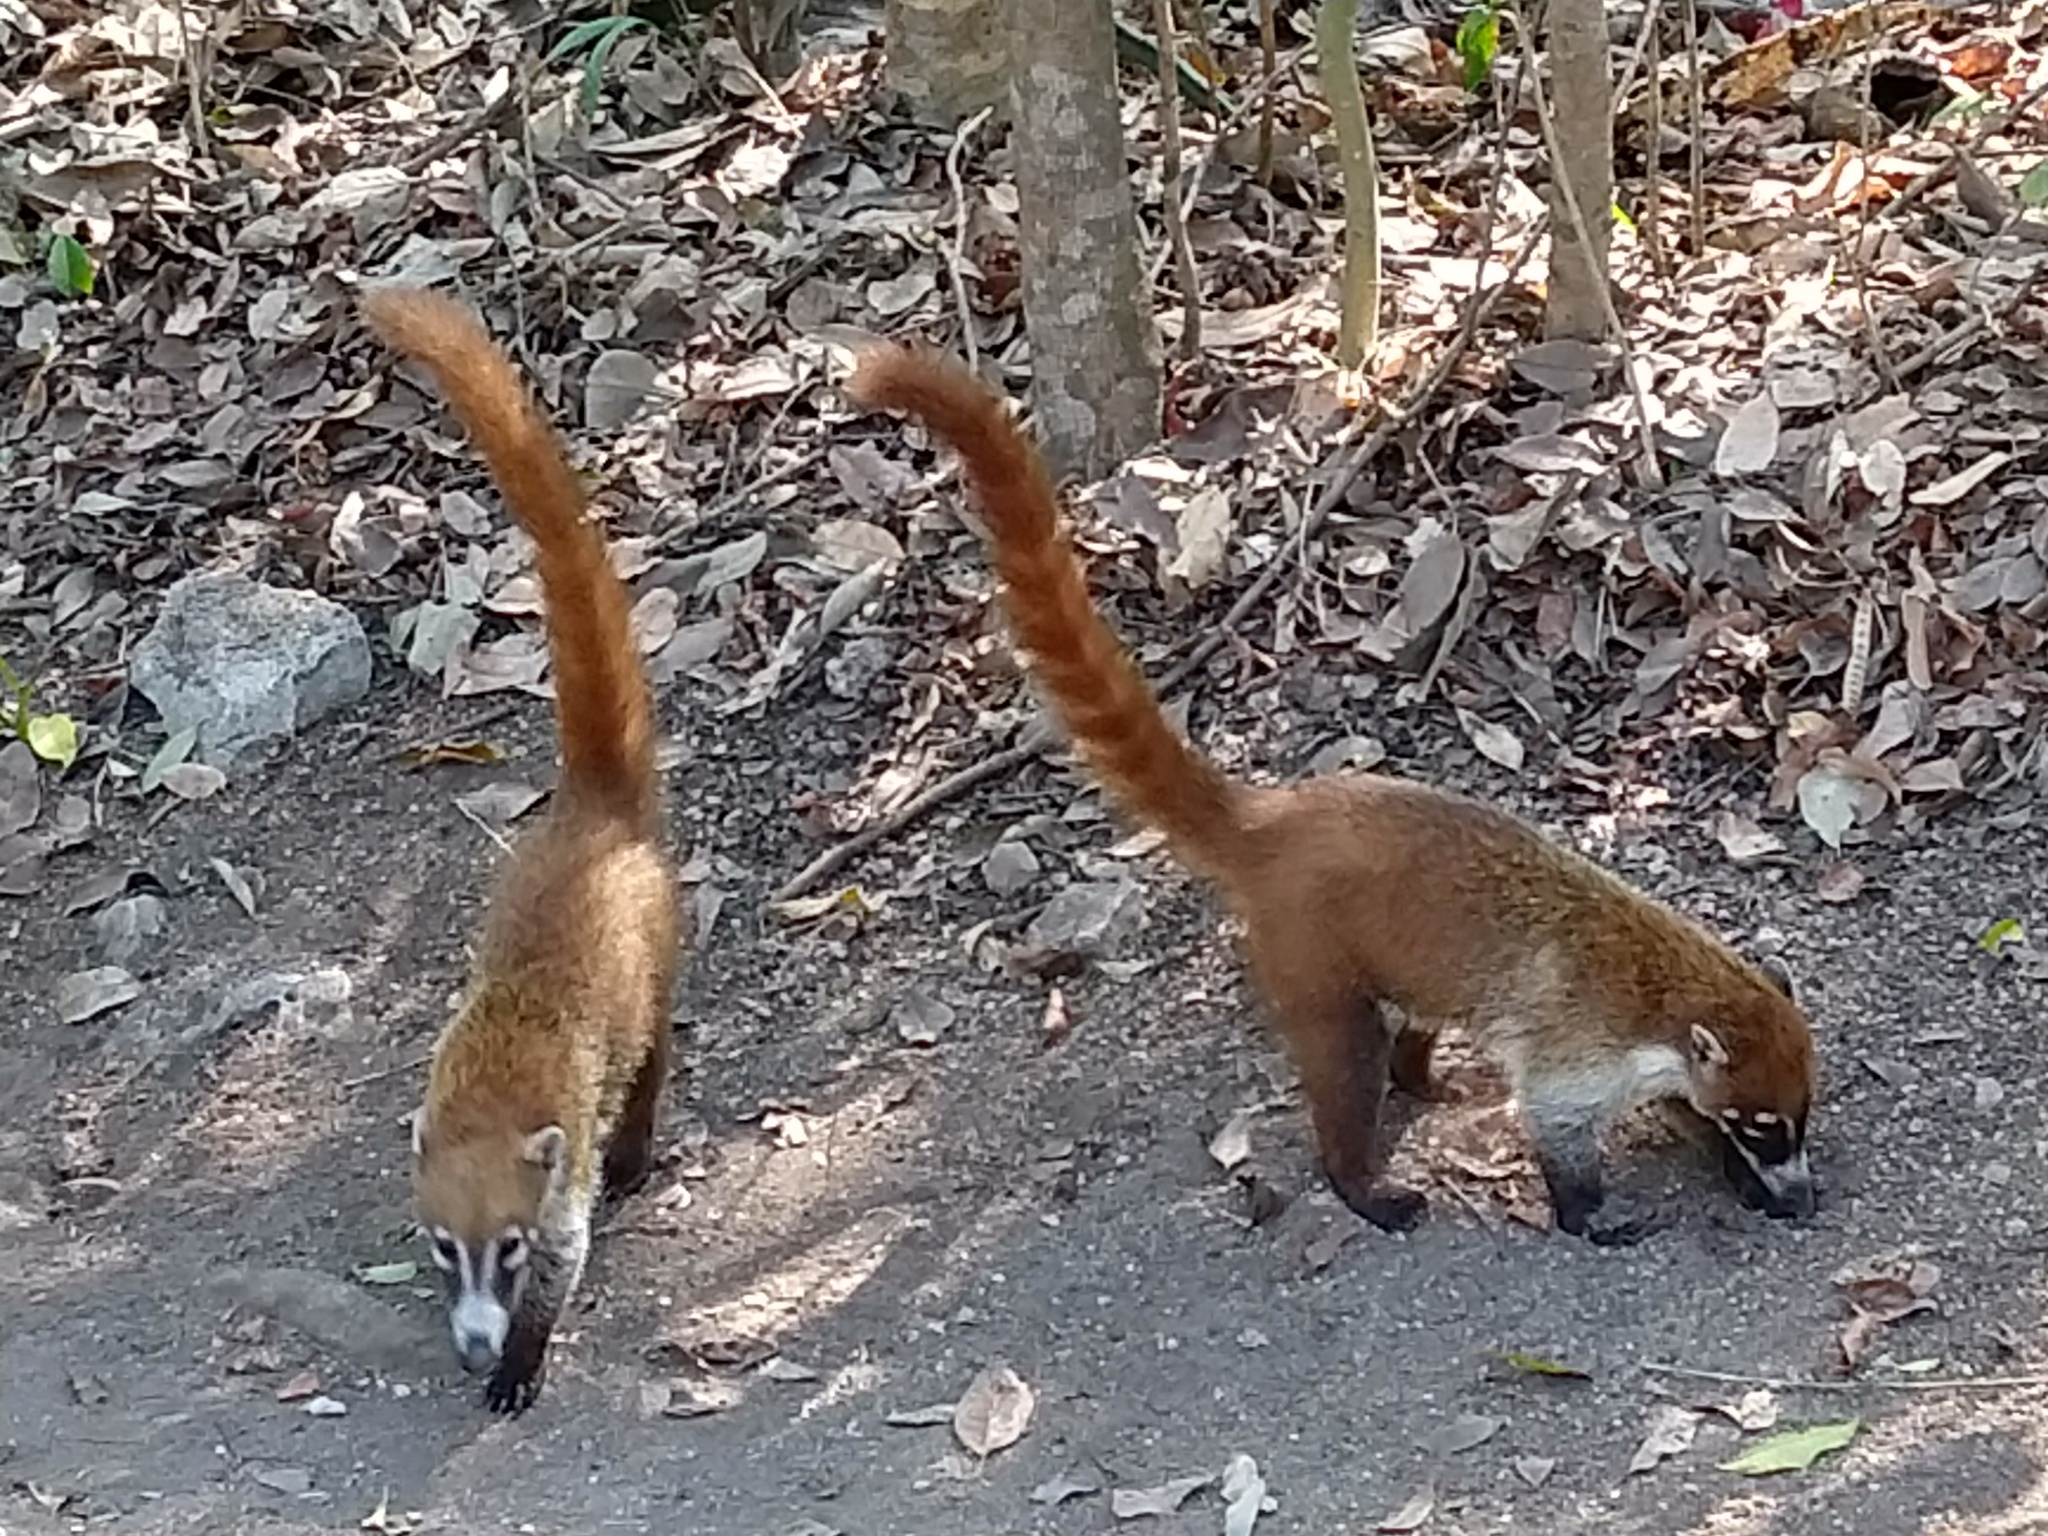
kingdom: Animalia
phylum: Chordata
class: Mammalia
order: Carnivora
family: Procyonidae
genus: Nasua
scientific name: Nasua narica
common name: White-nosed coati
